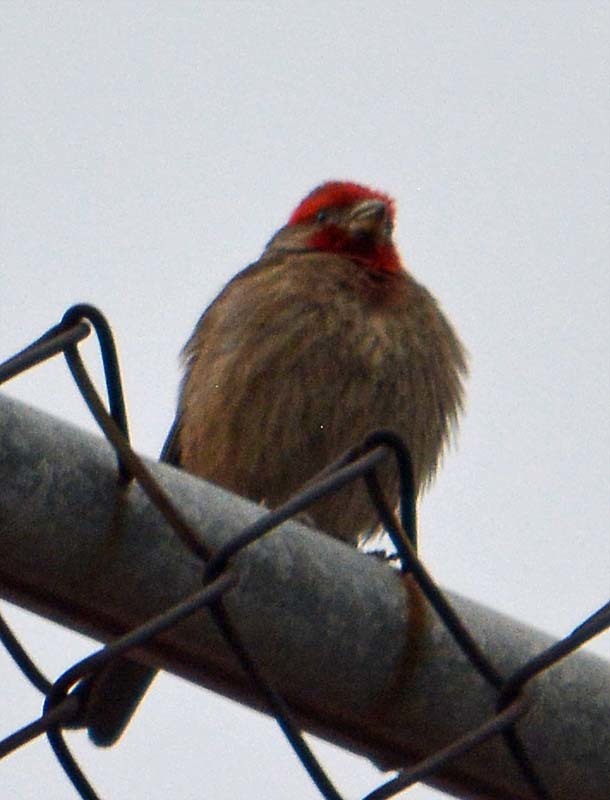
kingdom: Animalia
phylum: Chordata
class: Aves
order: Passeriformes
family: Fringillidae
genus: Haemorhous
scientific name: Haemorhous mexicanus
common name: House finch
